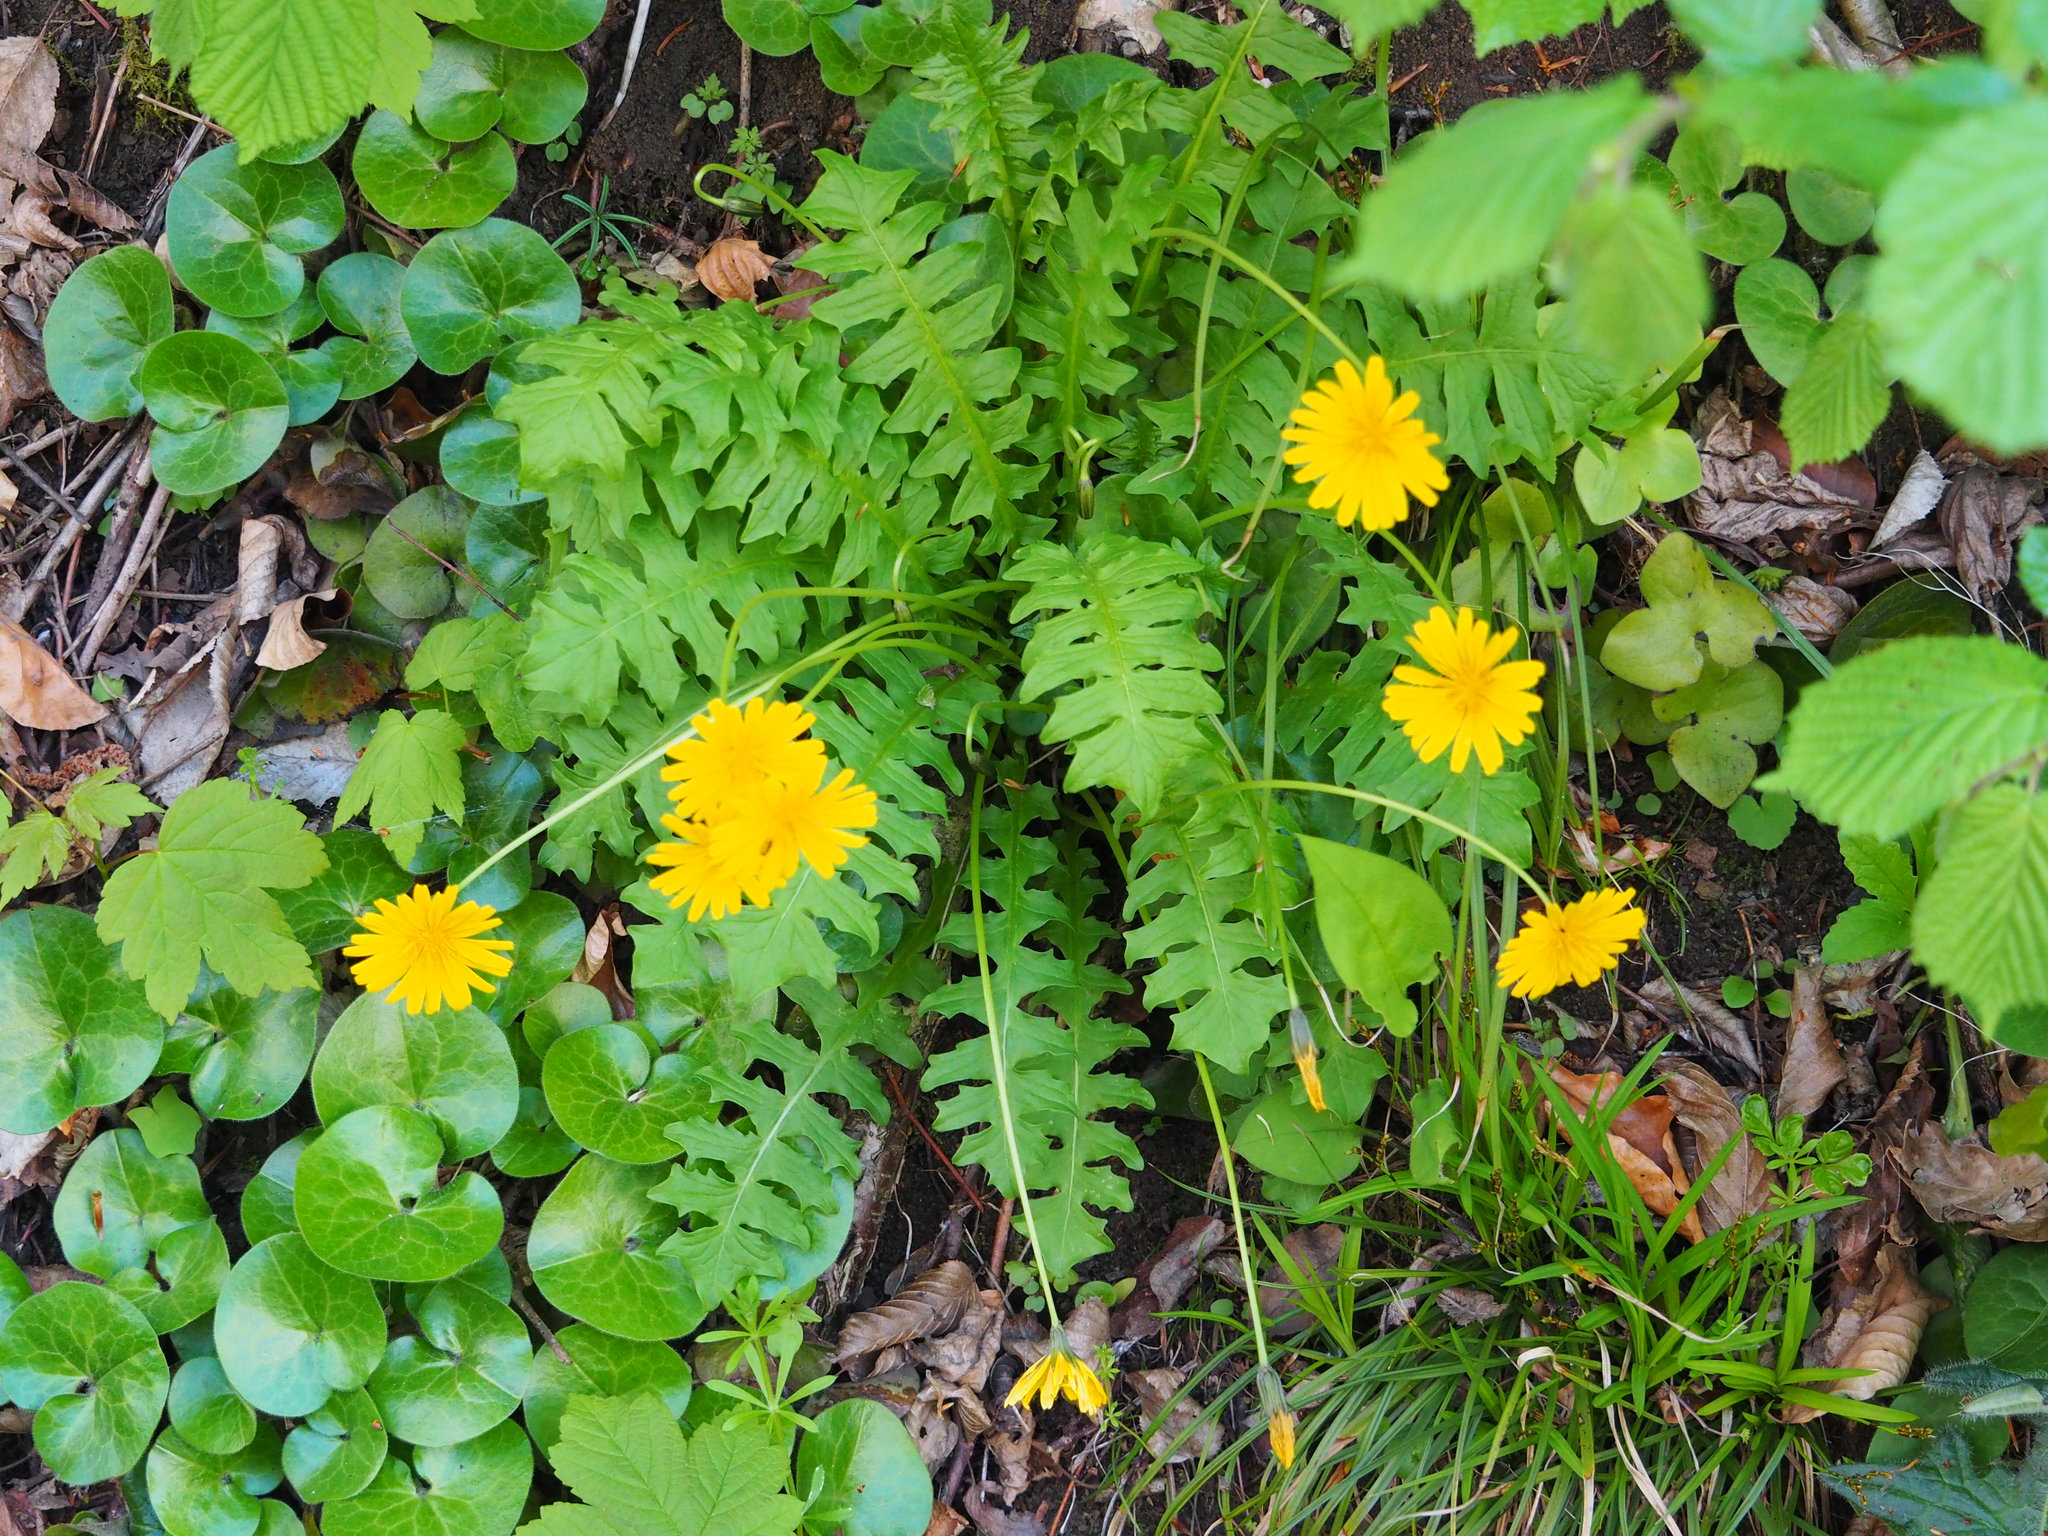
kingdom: Plantae
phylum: Tracheophyta
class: Magnoliopsida
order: Asterales
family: Asteraceae
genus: Aposeris
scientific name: Aposeris foetida
